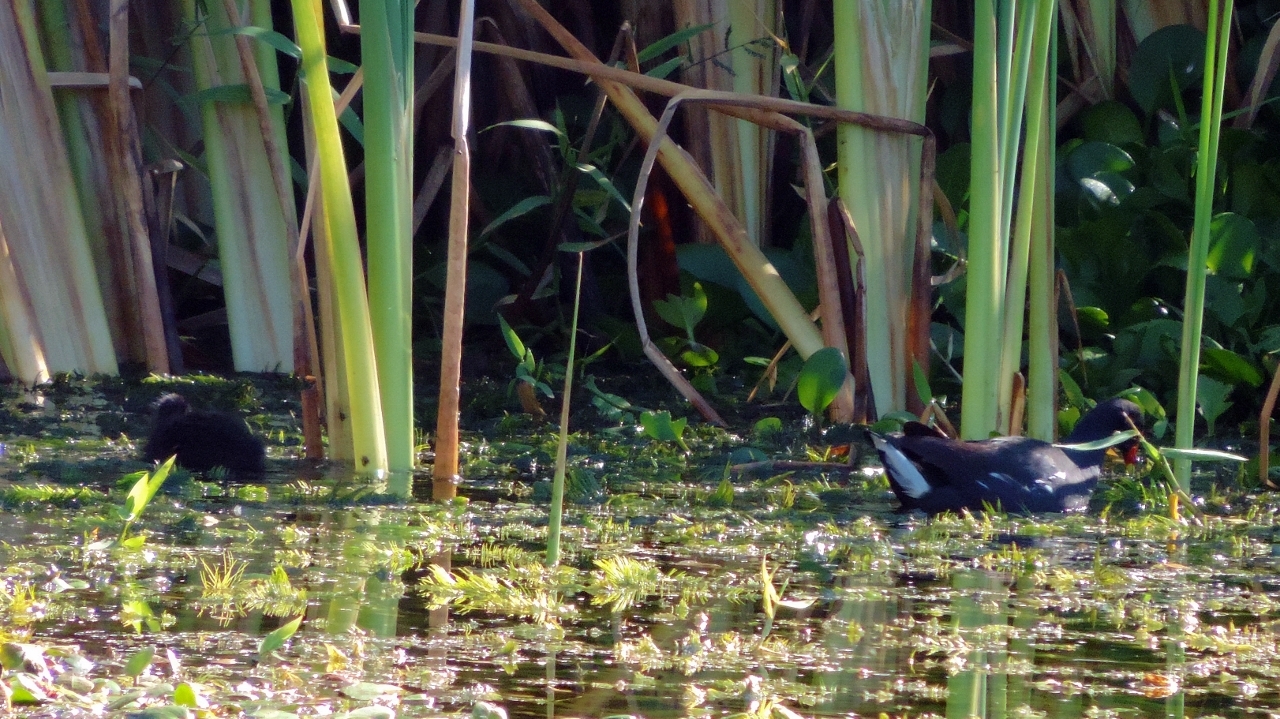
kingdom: Animalia
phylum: Chordata
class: Aves
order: Gruiformes
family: Rallidae
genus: Gallinula
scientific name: Gallinula chloropus
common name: Common moorhen
